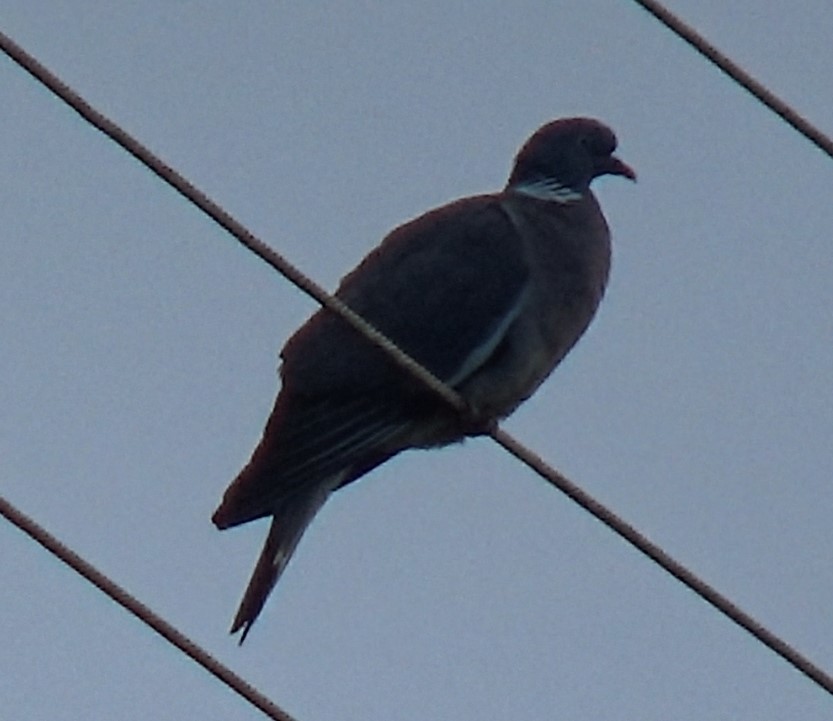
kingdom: Animalia
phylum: Chordata
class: Aves
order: Columbiformes
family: Columbidae
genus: Columba
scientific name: Columba palumbus
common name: Common wood pigeon
